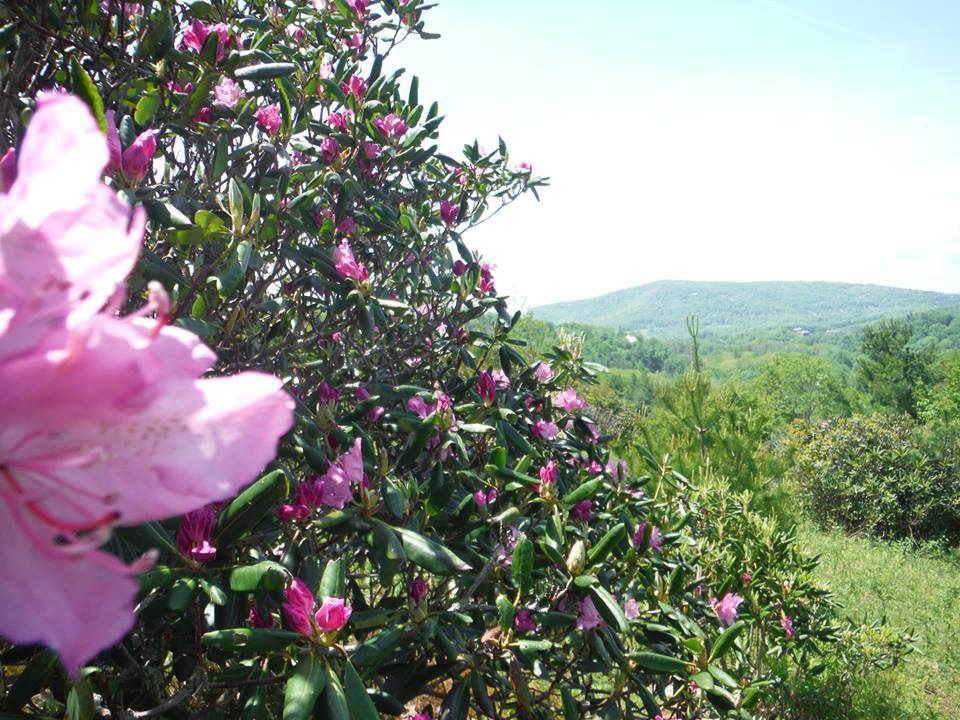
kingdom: Plantae
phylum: Tracheophyta
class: Magnoliopsida
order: Ericales
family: Ericaceae
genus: Rhododendron
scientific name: Rhododendron catawbiense
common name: Catawba rhododendron
